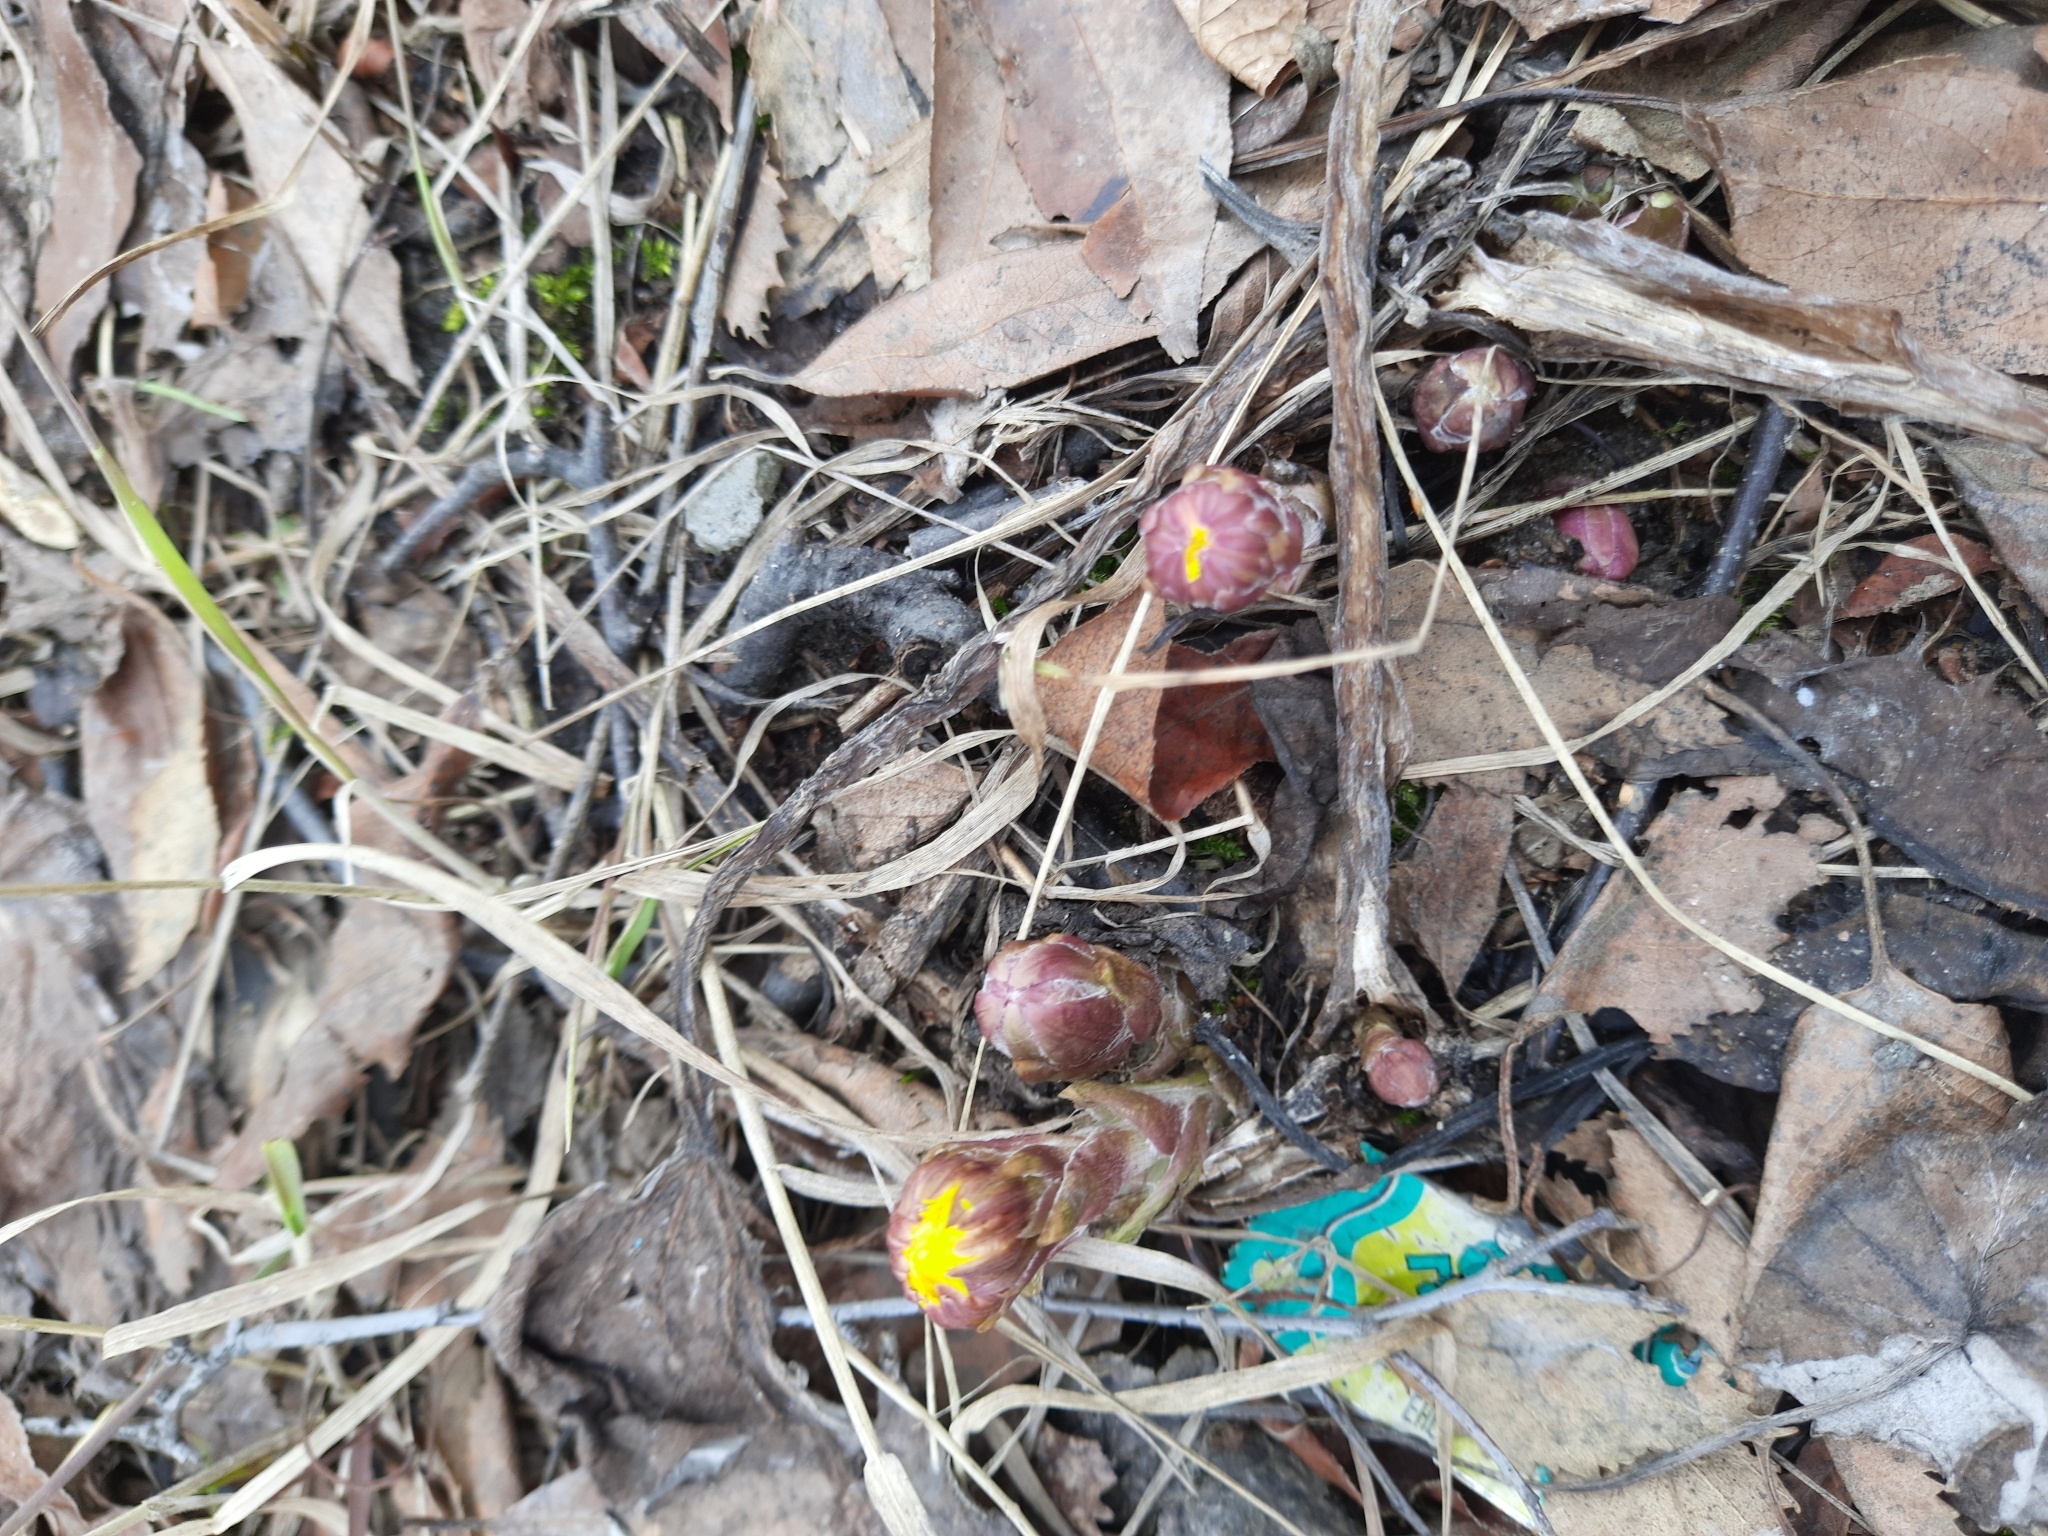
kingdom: Plantae
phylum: Tracheophyta
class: Magnoliopsida
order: Asterales
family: Asteraceae
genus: Tussilago
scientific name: Tussilago farfara
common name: Coltsfoot
